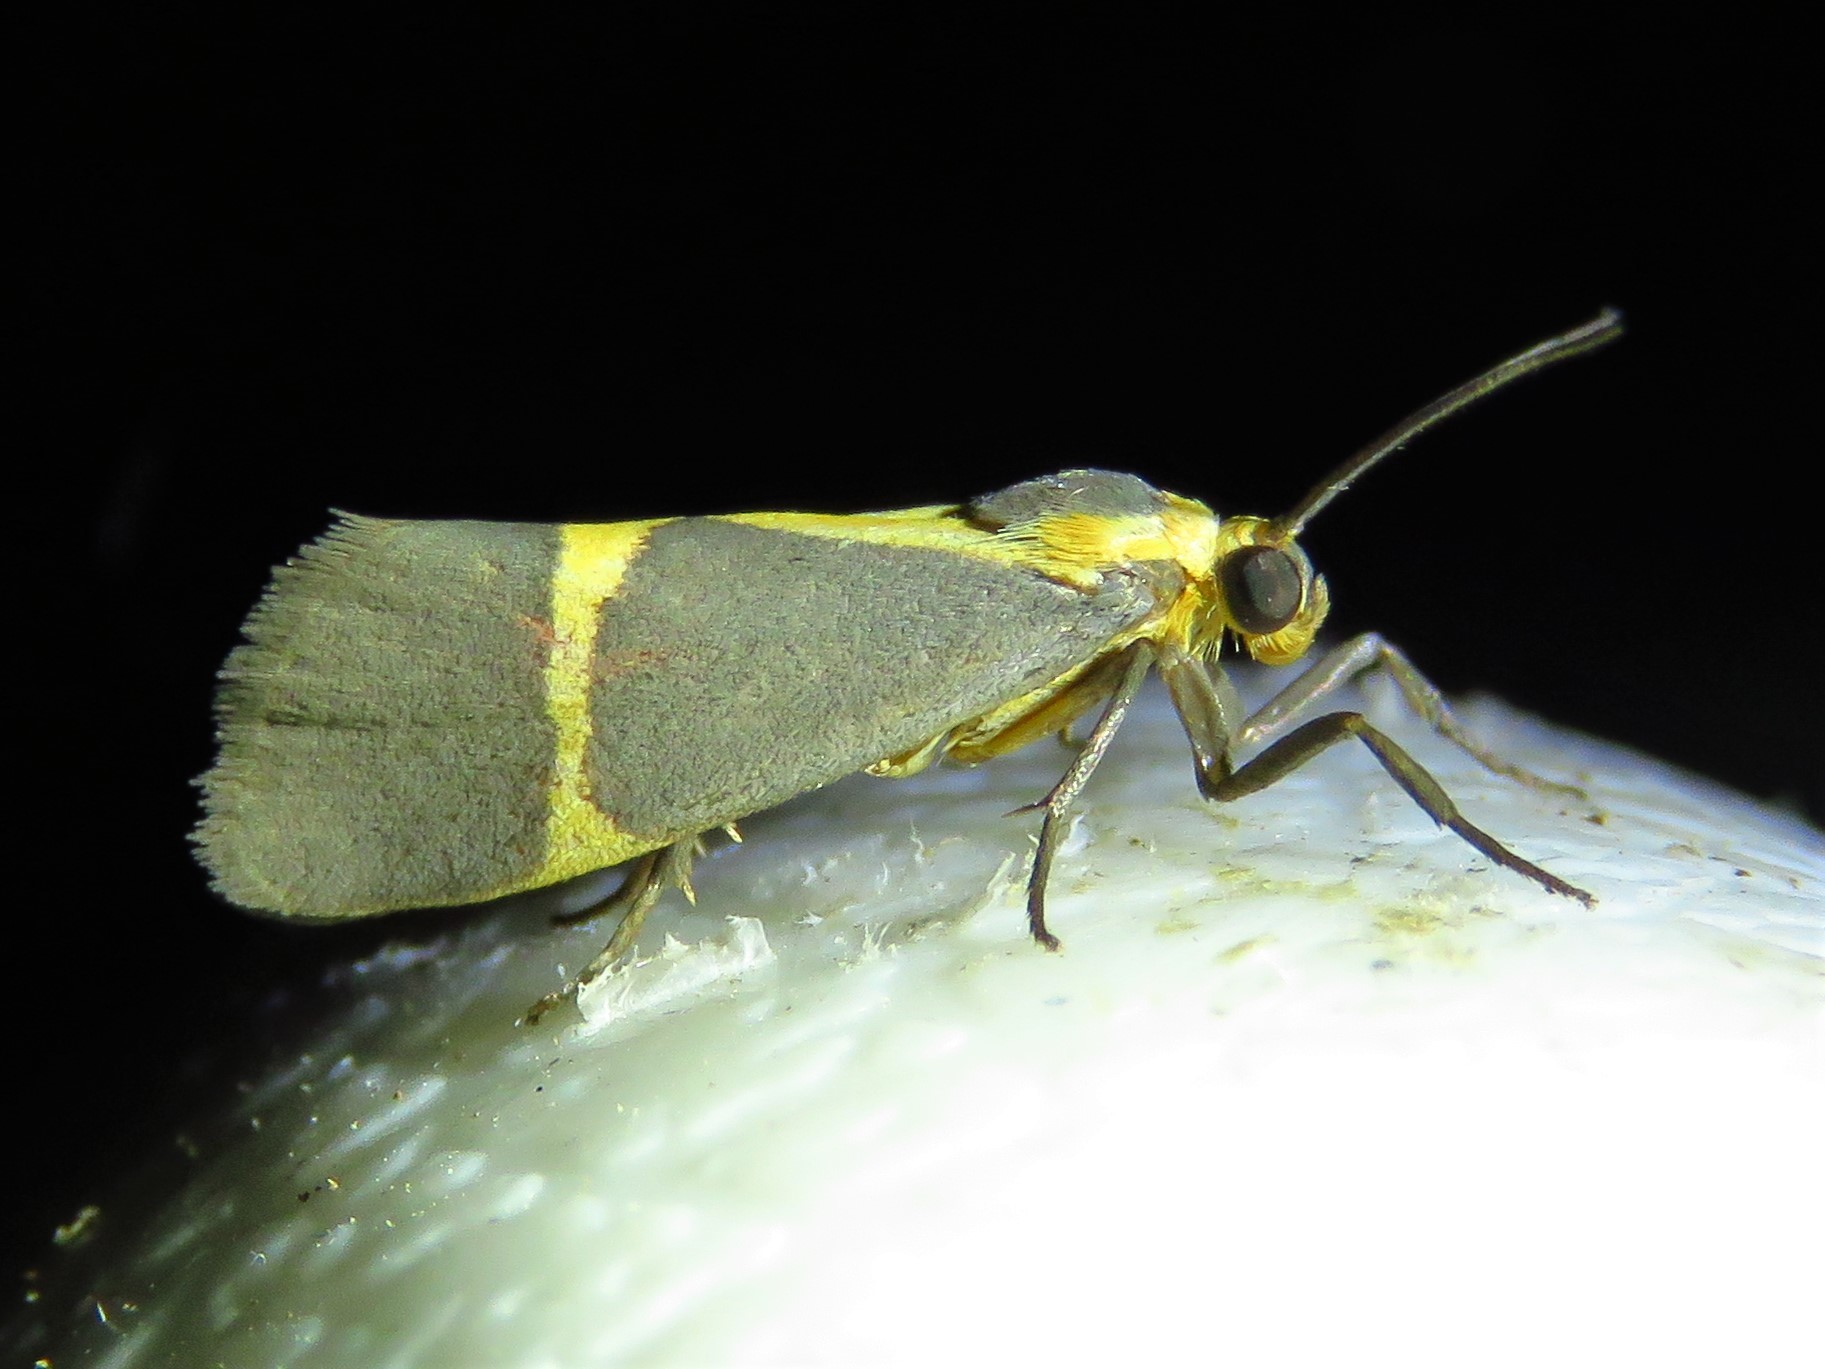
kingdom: Animalia
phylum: Arthropoda
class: Insecta
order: Lepidoptera
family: Erebidae
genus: Cisthene
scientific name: Cisthene tenuifascia
